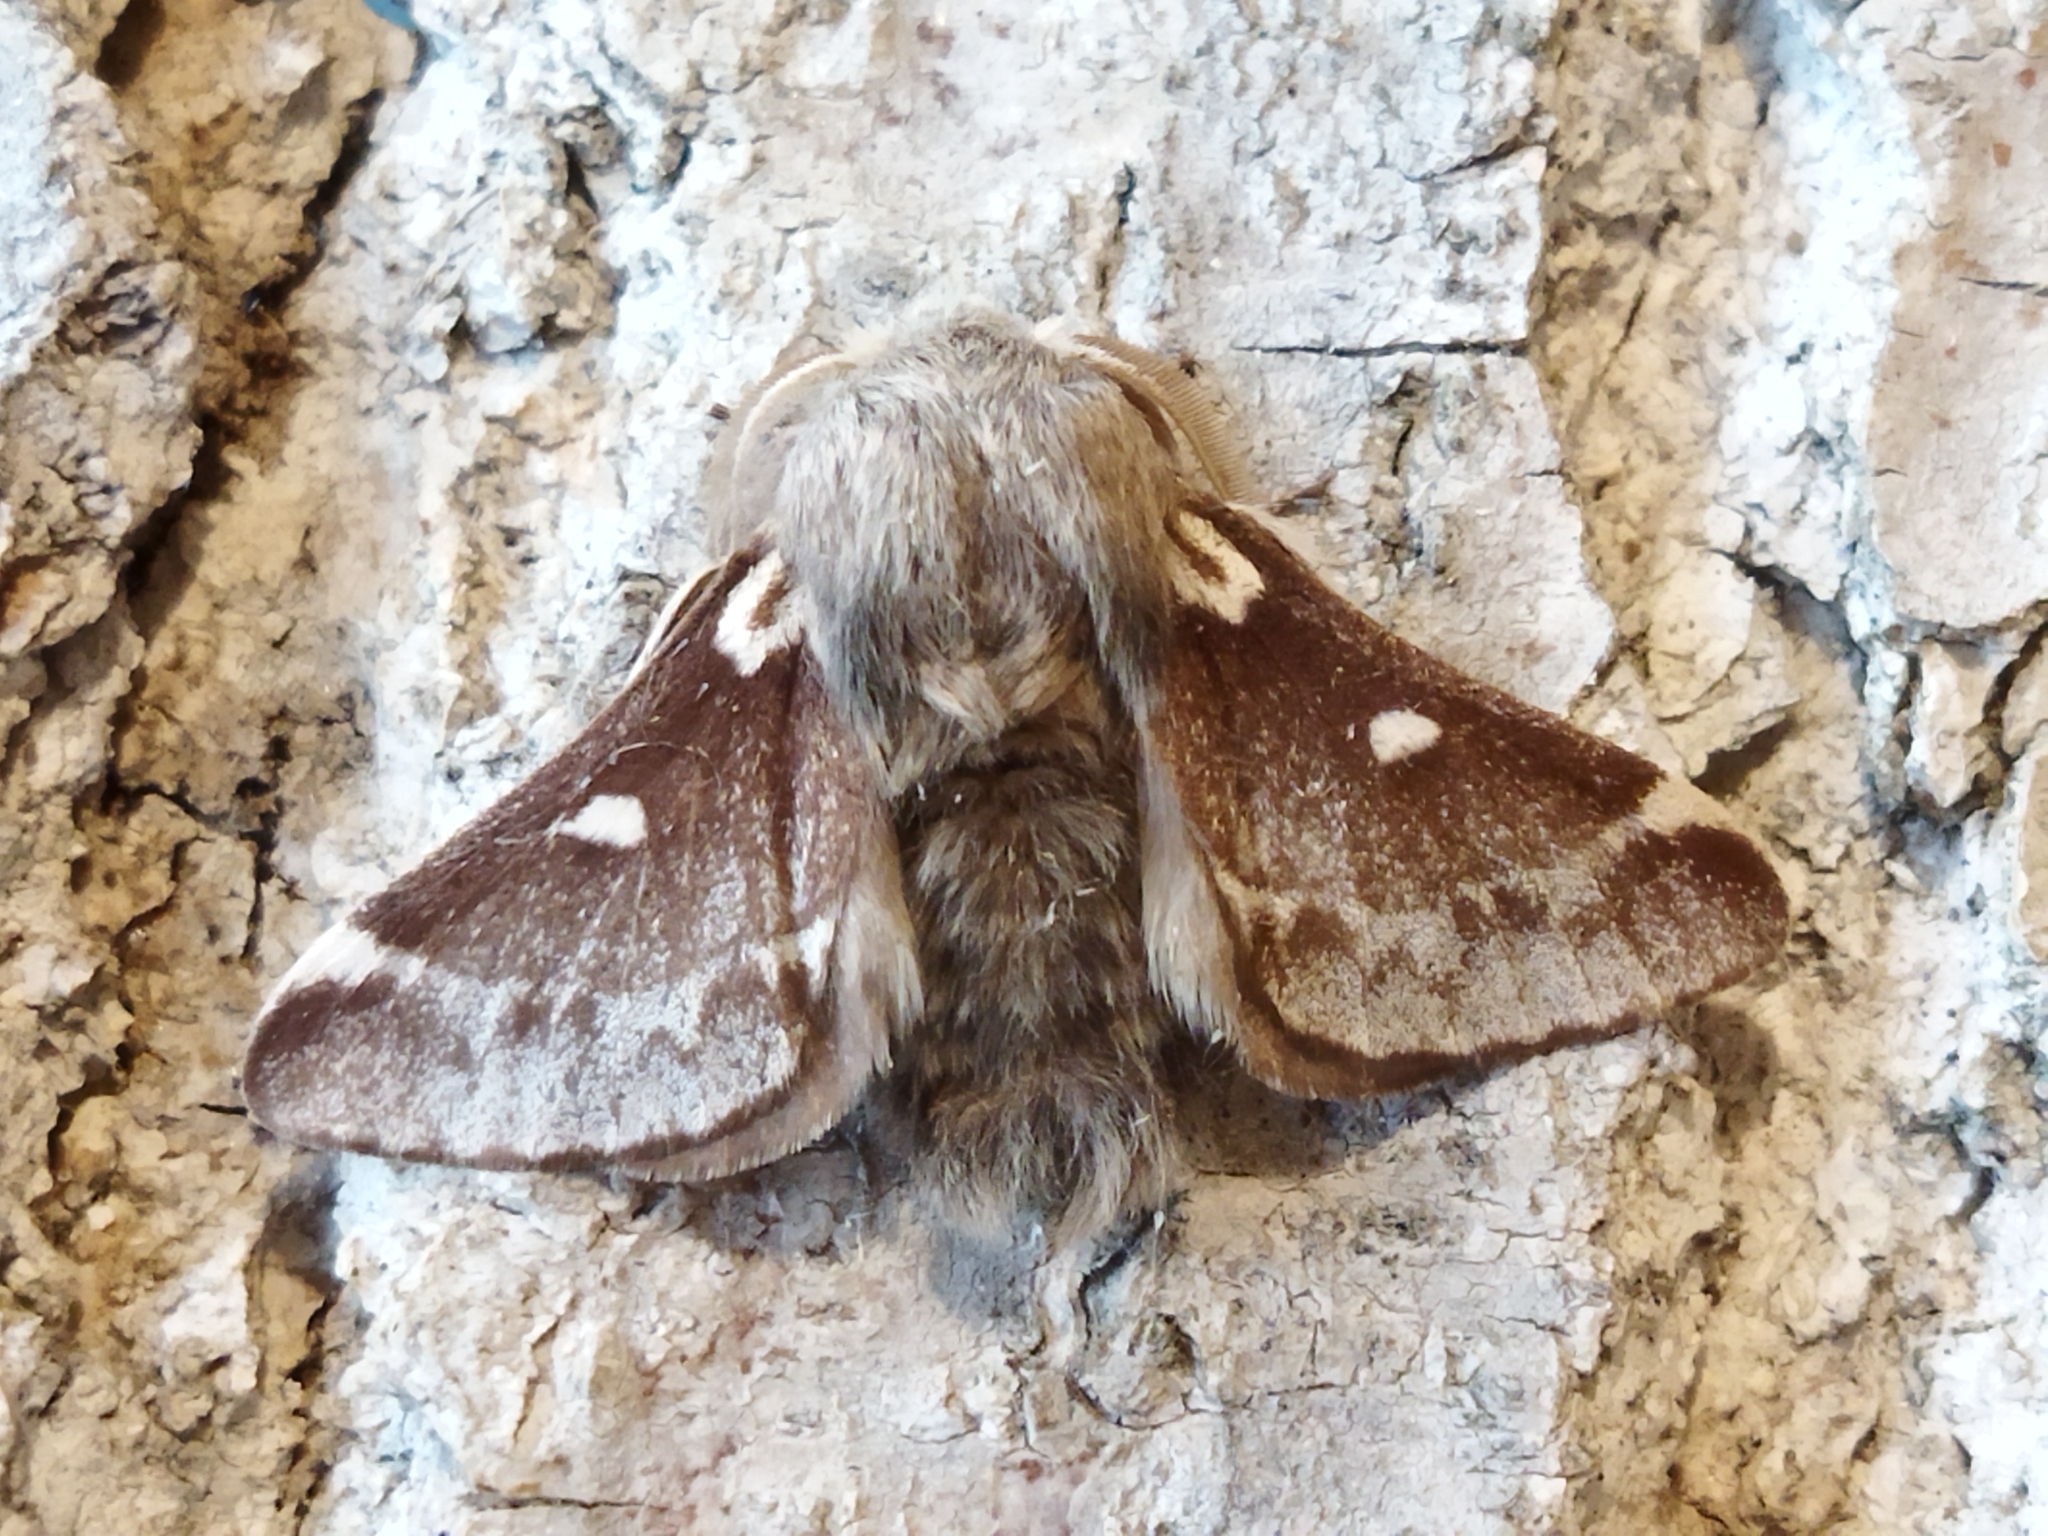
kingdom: Animalia
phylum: Arthropoda
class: Insecta
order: Lepidoptera
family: Lasiocampidae
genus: Eriogaster
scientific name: Eriogaster lanestris
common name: Small eggar
